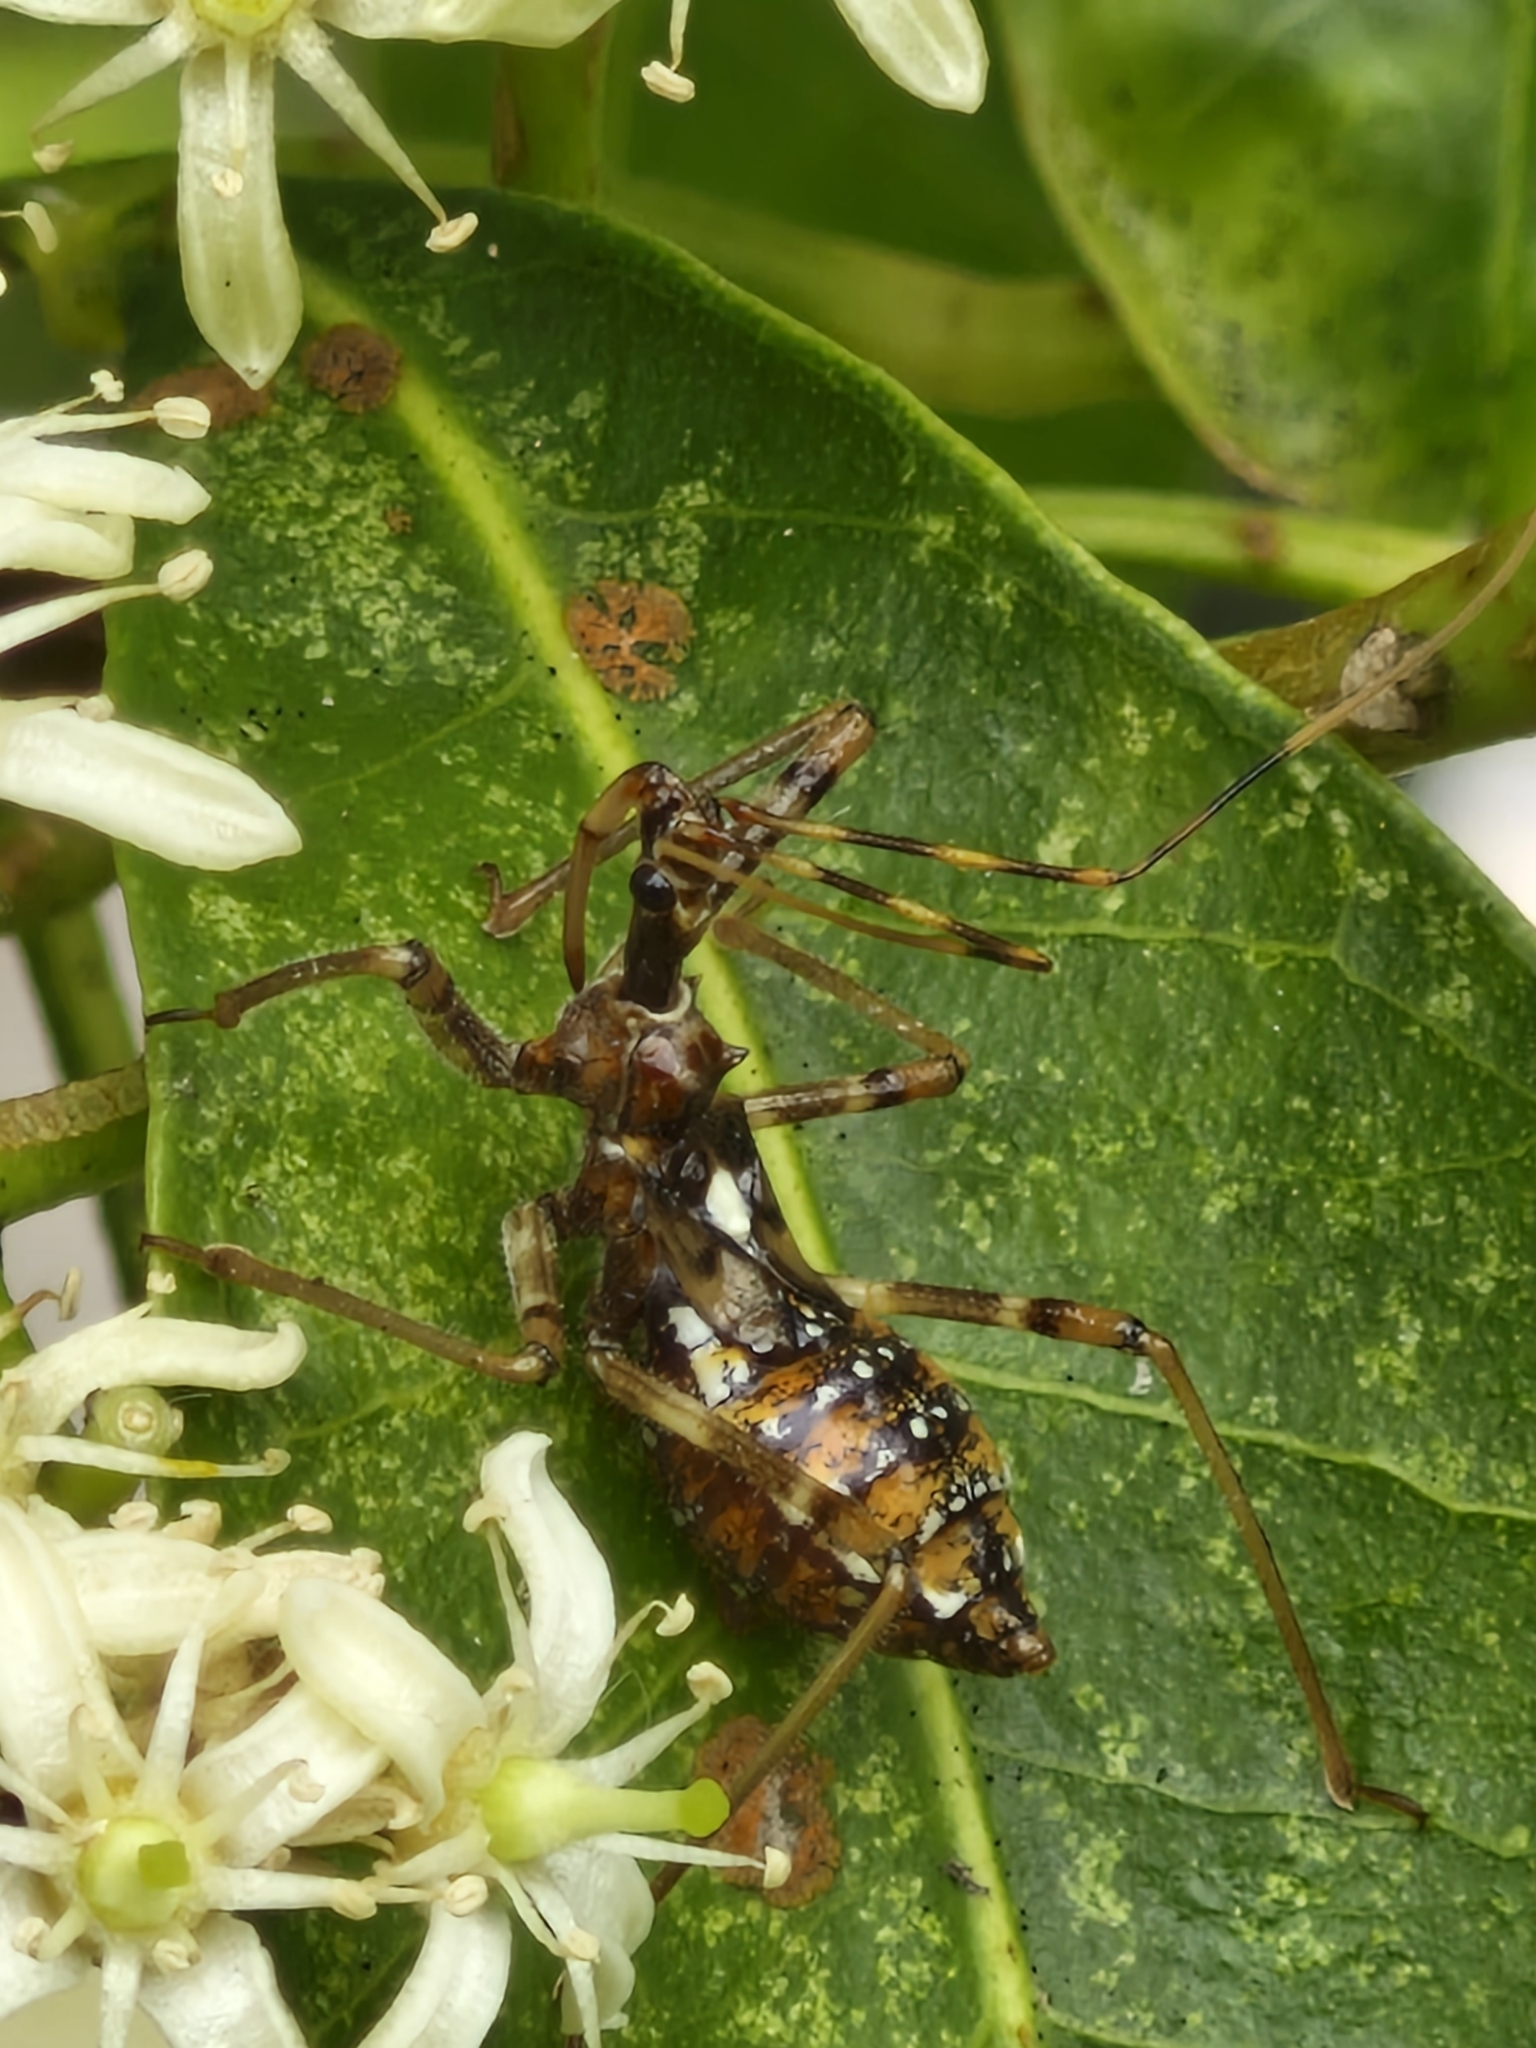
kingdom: Animalia
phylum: Arthropoda
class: Insecta
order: Hemiptera
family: Reduviidae
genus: Pristhesancus
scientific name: Pristhesancus plagipennis
